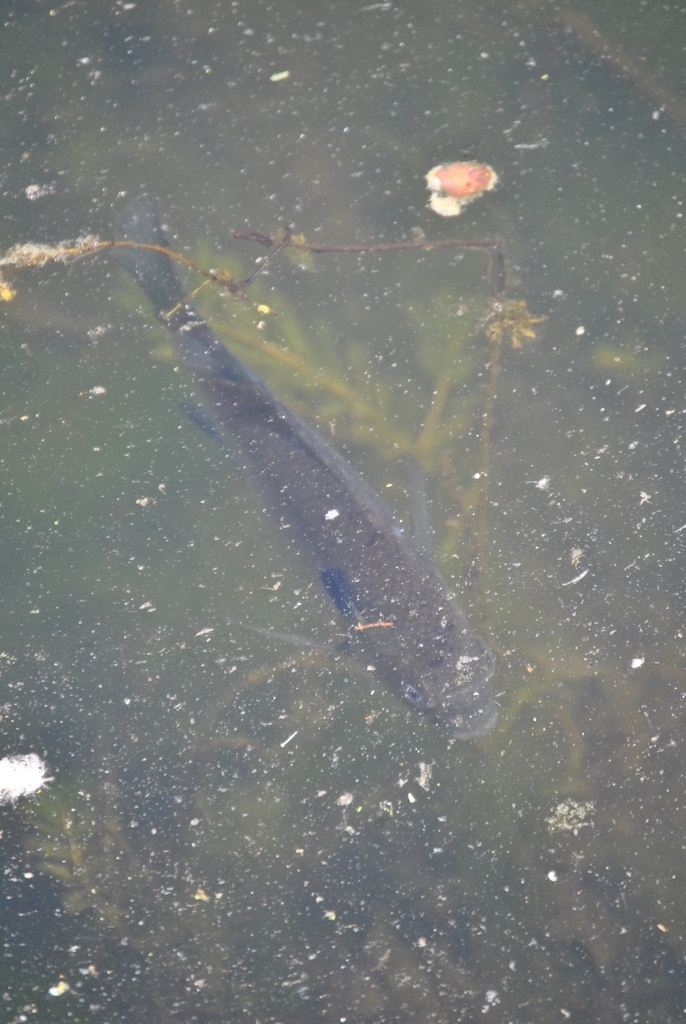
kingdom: Animalia
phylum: Chordata
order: Perciformes
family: Centrarchidae
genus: Lepomis
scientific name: Lepomis macrochirus
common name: Bluegill
